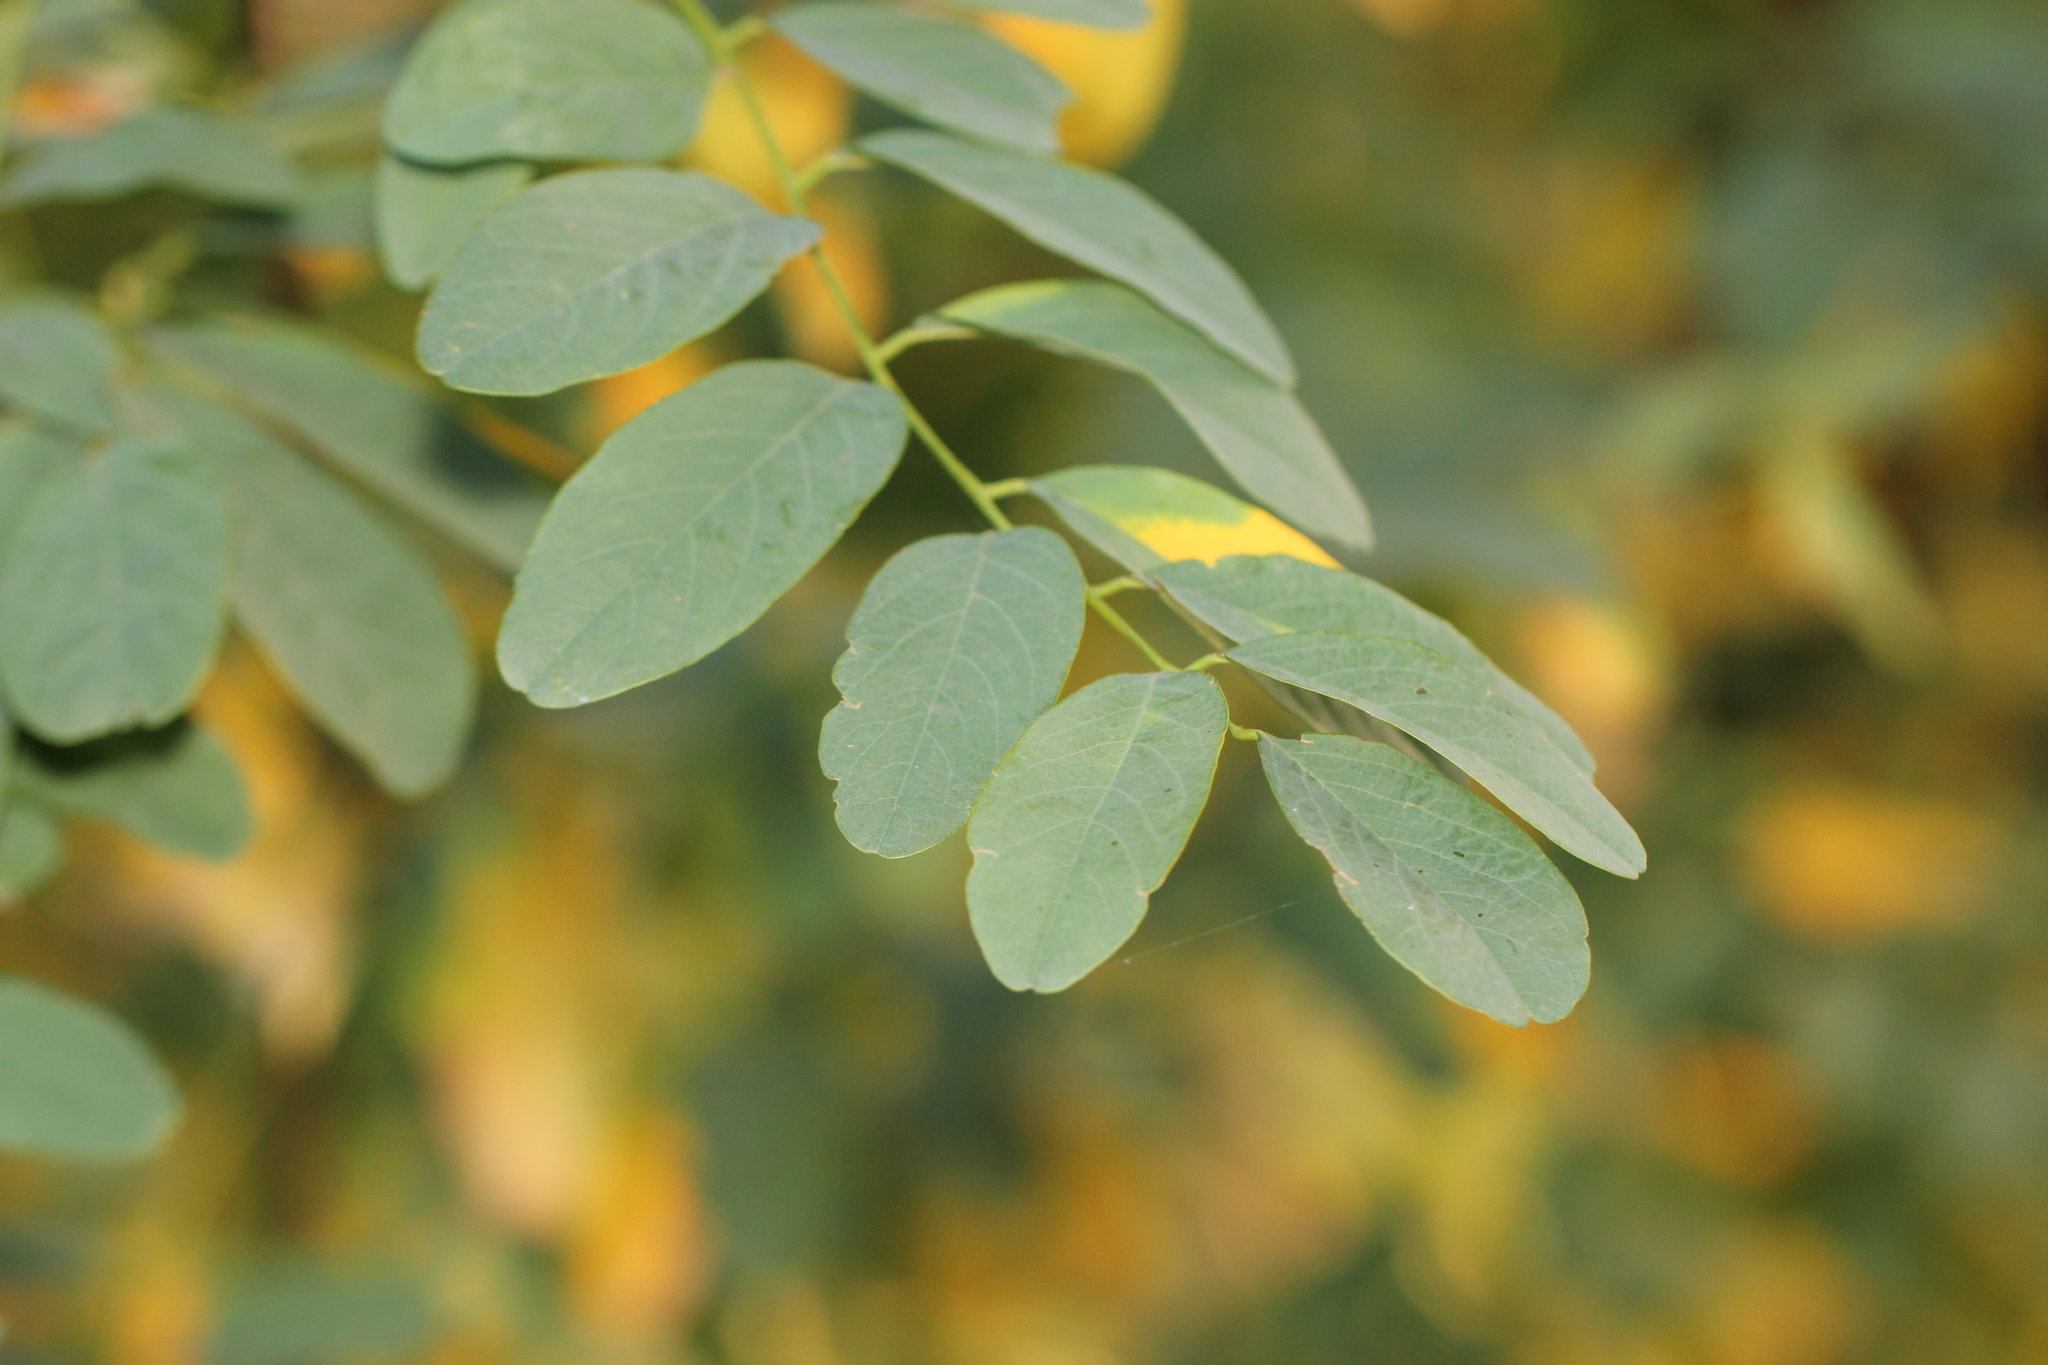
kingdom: Plantae
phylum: Tracheophyta
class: Magnoliopsida
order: Fabales
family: Fabaceae
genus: Robinia
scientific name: Robinia pseudoacacia
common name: Black locust
